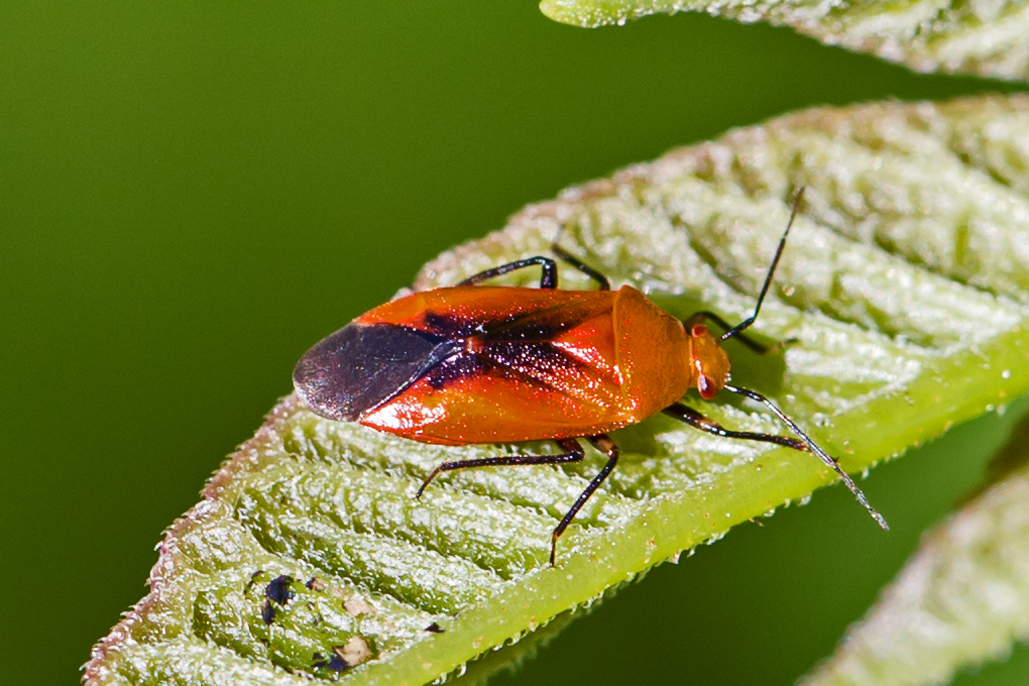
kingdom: Animalia
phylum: Arthropoda
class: Insecta
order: Hemiptera
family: Miridae
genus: Tropidosteptes
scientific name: Tropidosteptes cardinalis
